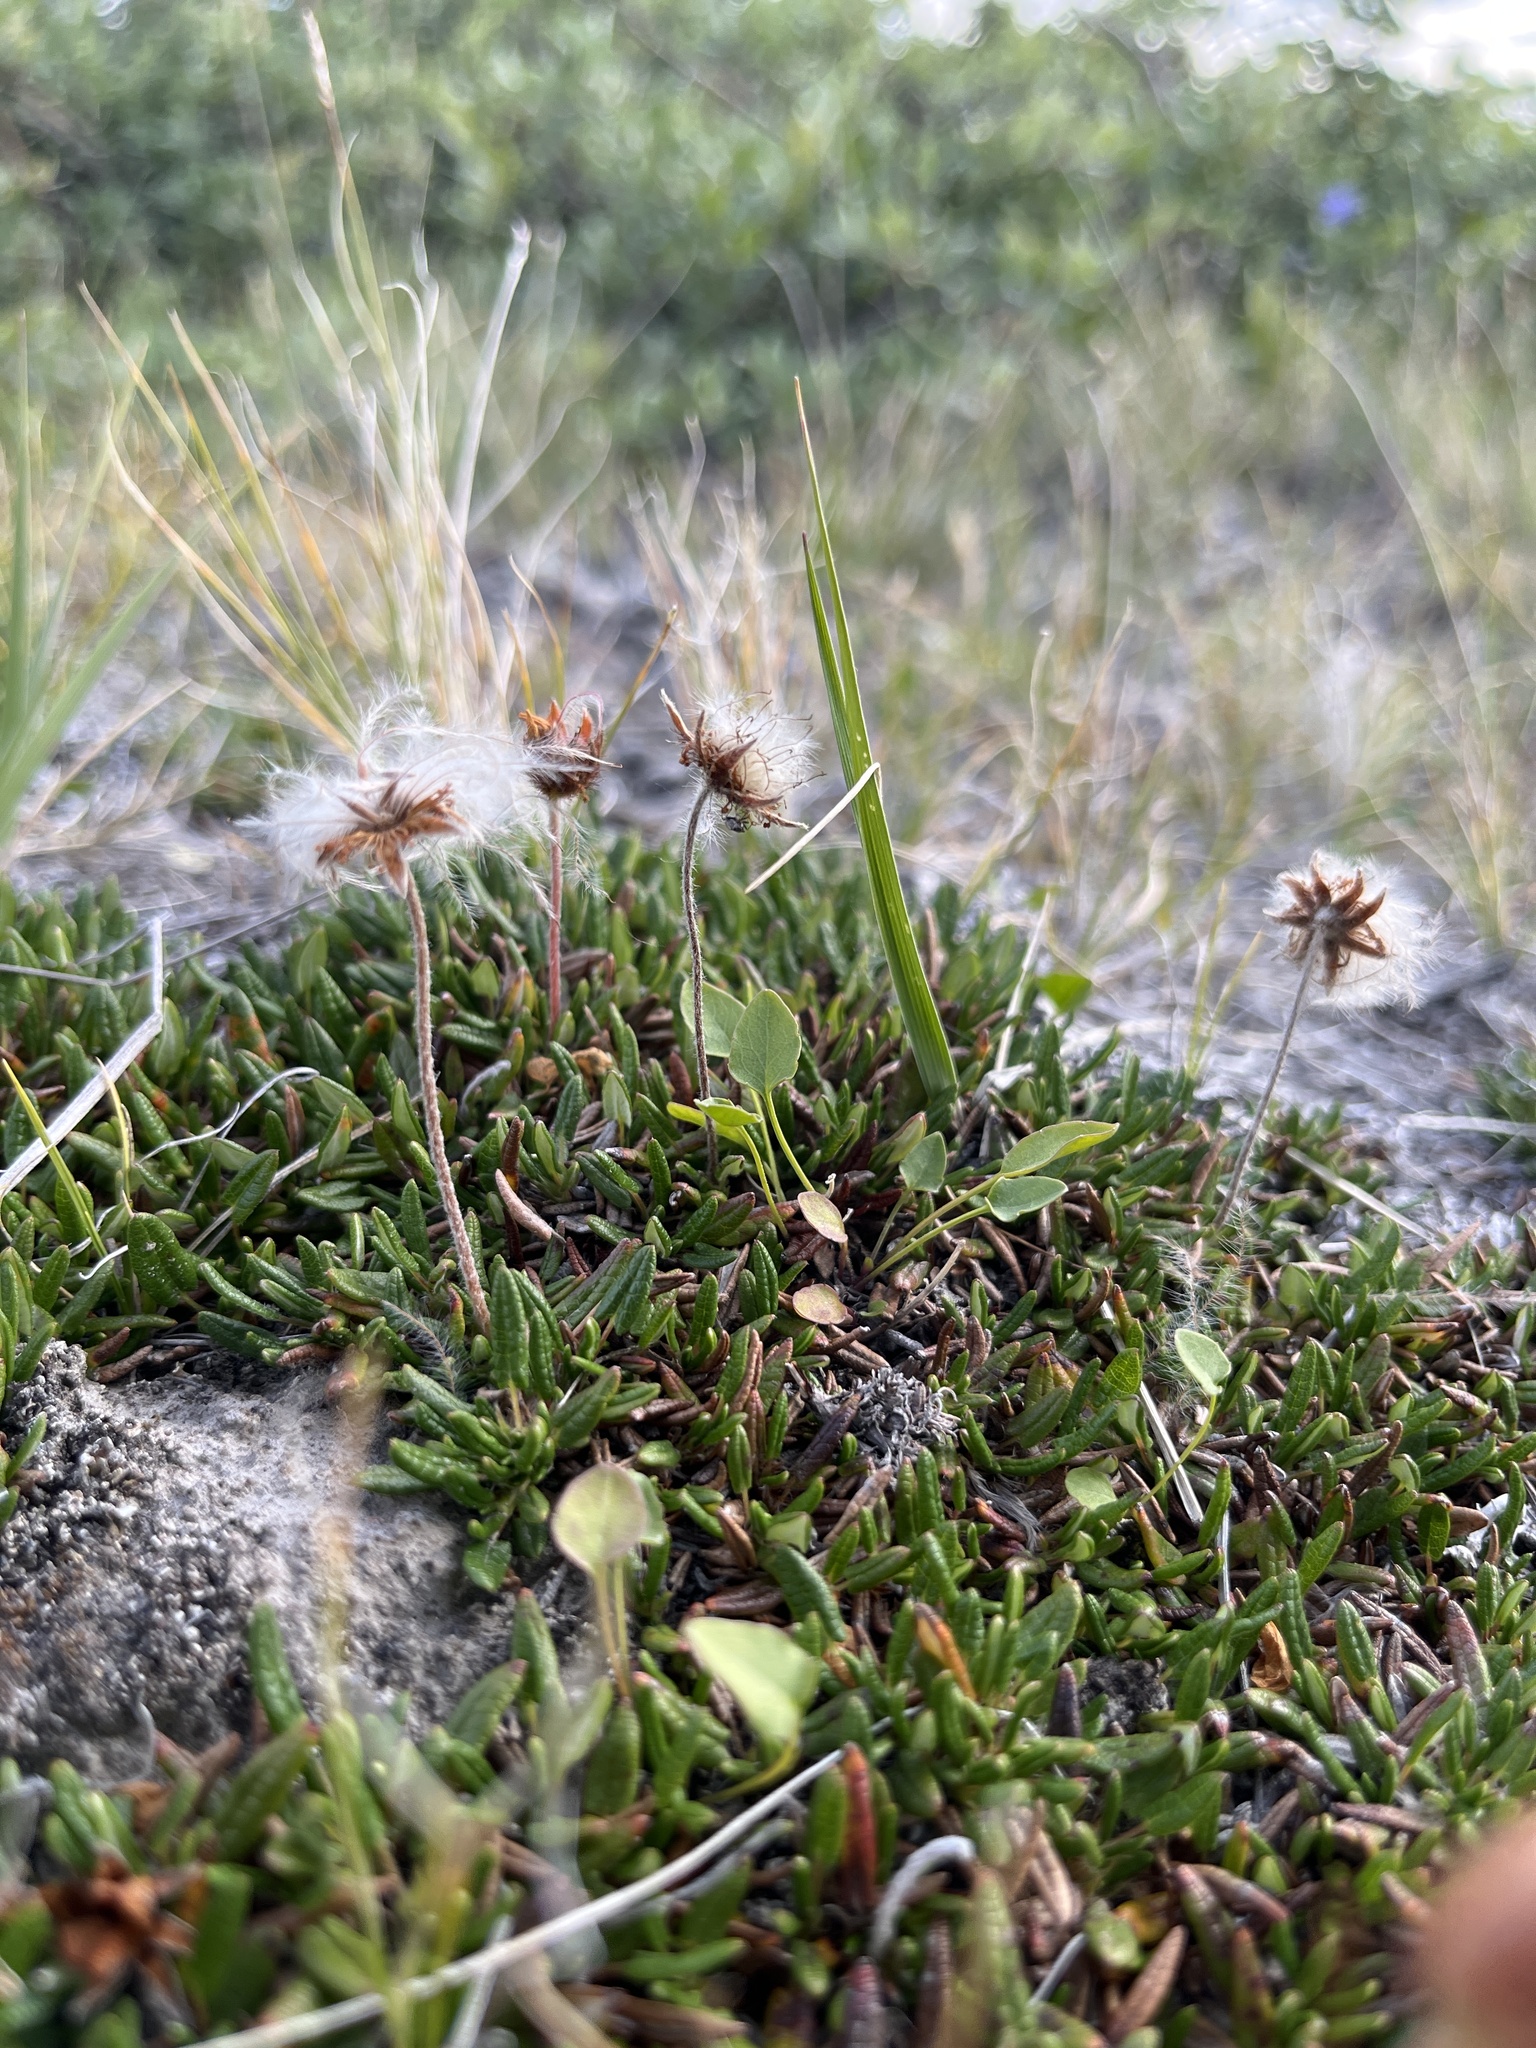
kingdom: Plantae
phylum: Tracheophyta
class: Magnoliopsida
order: Rosales
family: Rosaceae
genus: Dryas
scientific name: Dryas integrifolia
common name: Entire-leaved mountain avens
